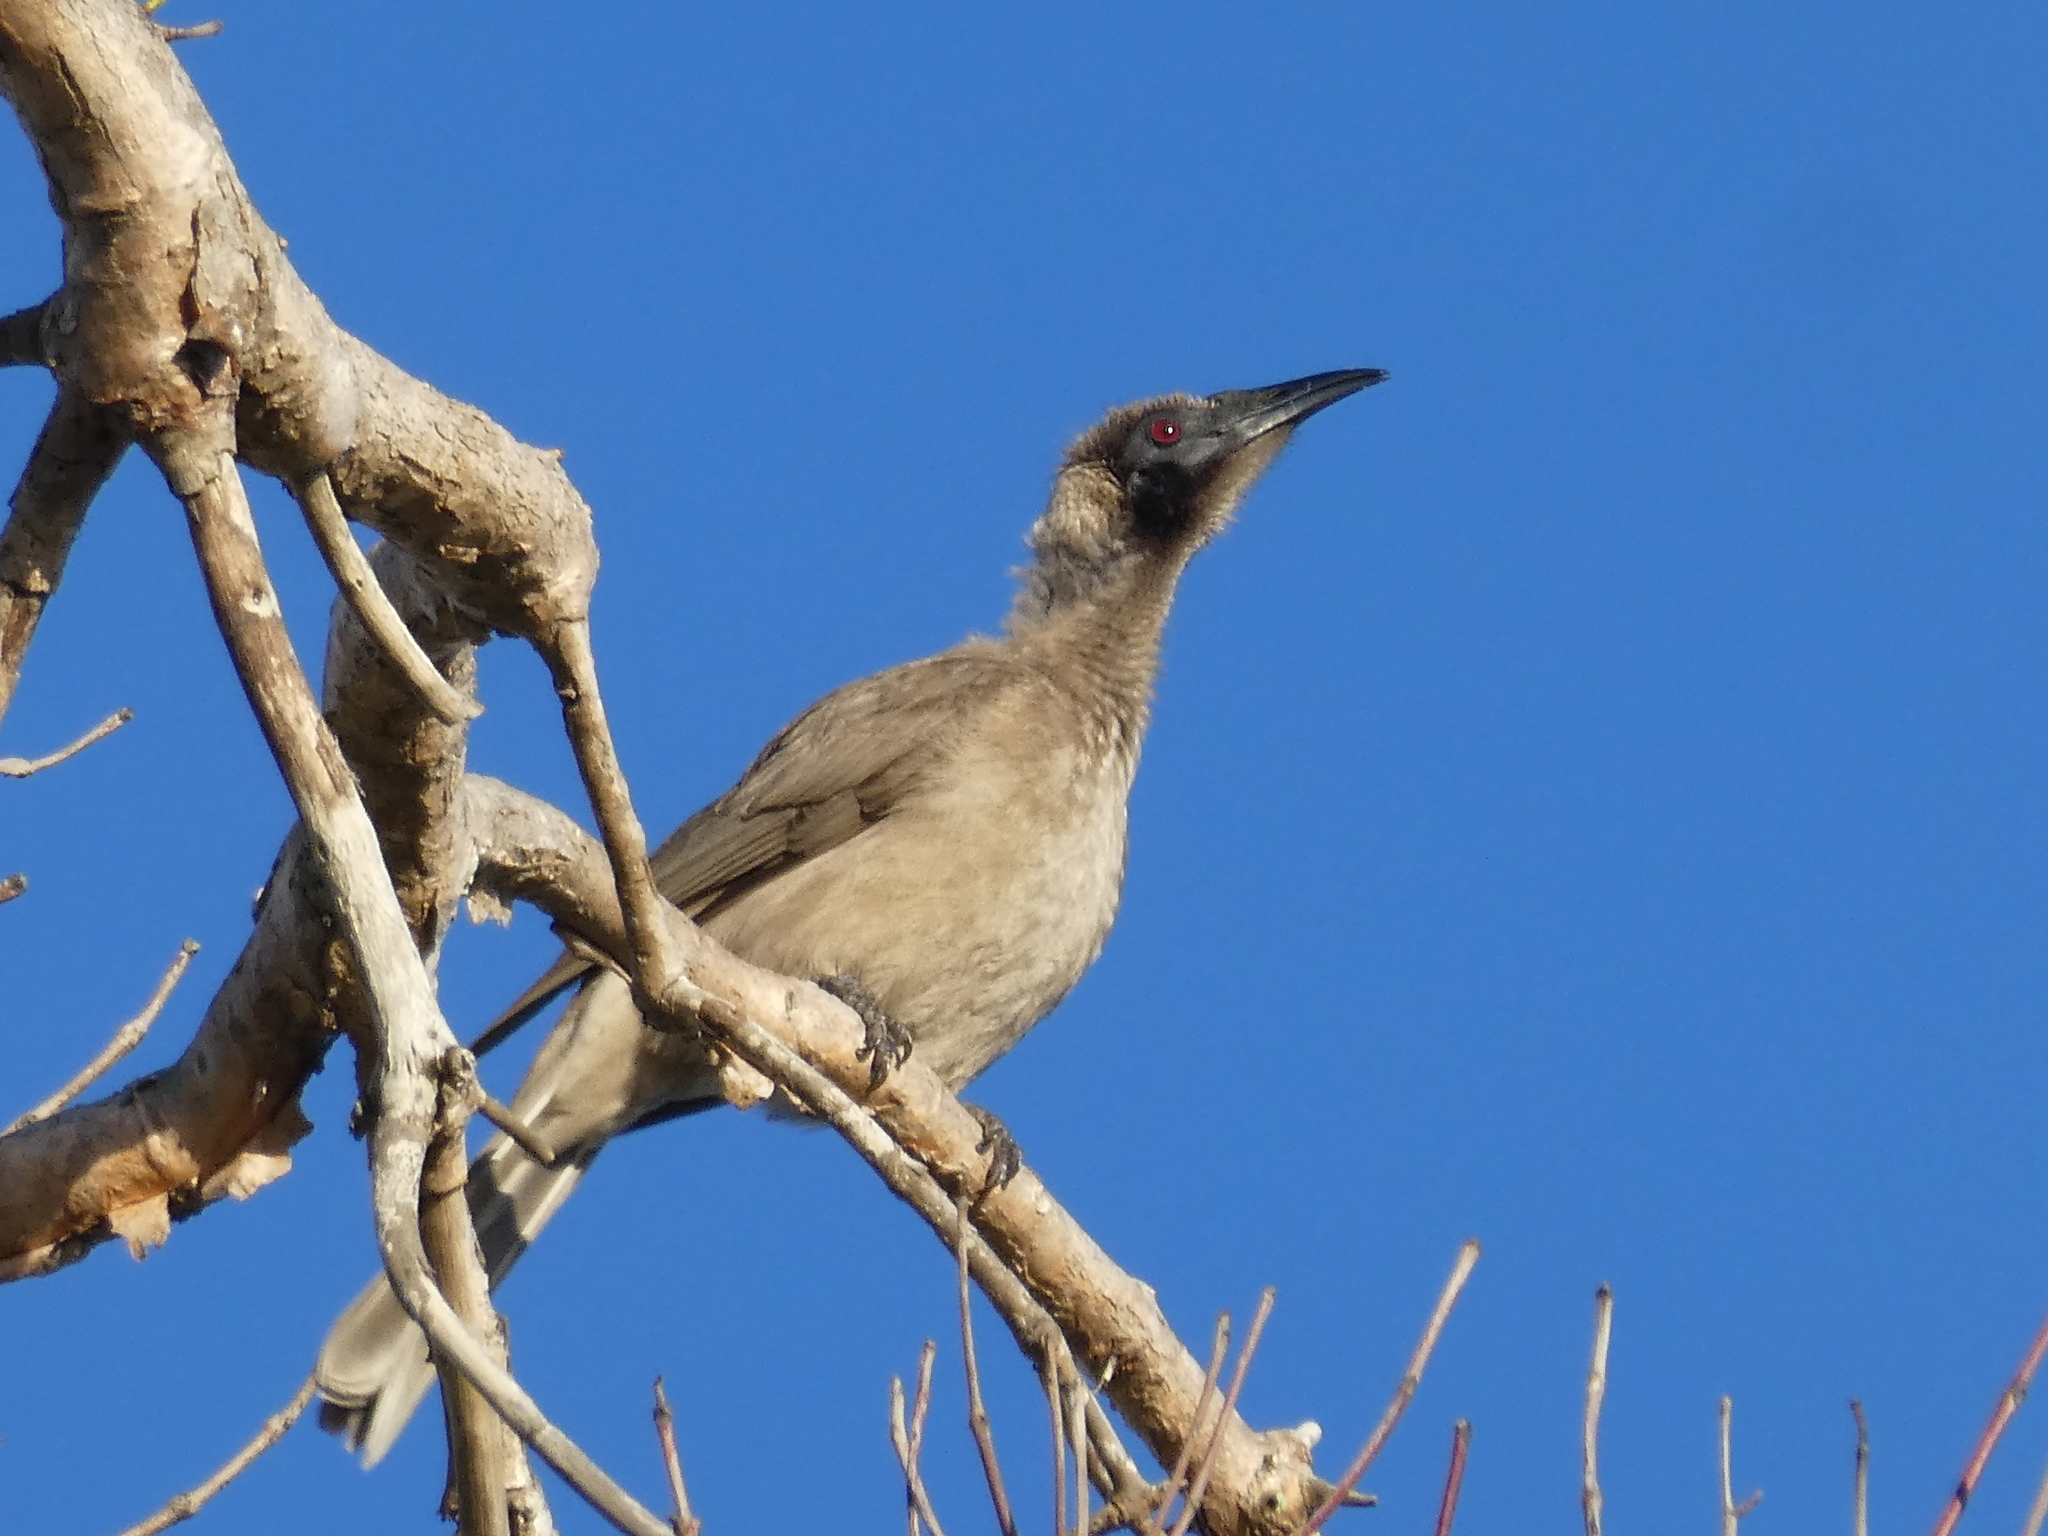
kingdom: Animalia
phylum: Chordata
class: Aves
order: Passeriformes
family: Meliphagidae
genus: Philemon
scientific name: Philemon buceroides
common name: Helmeted friarbird
